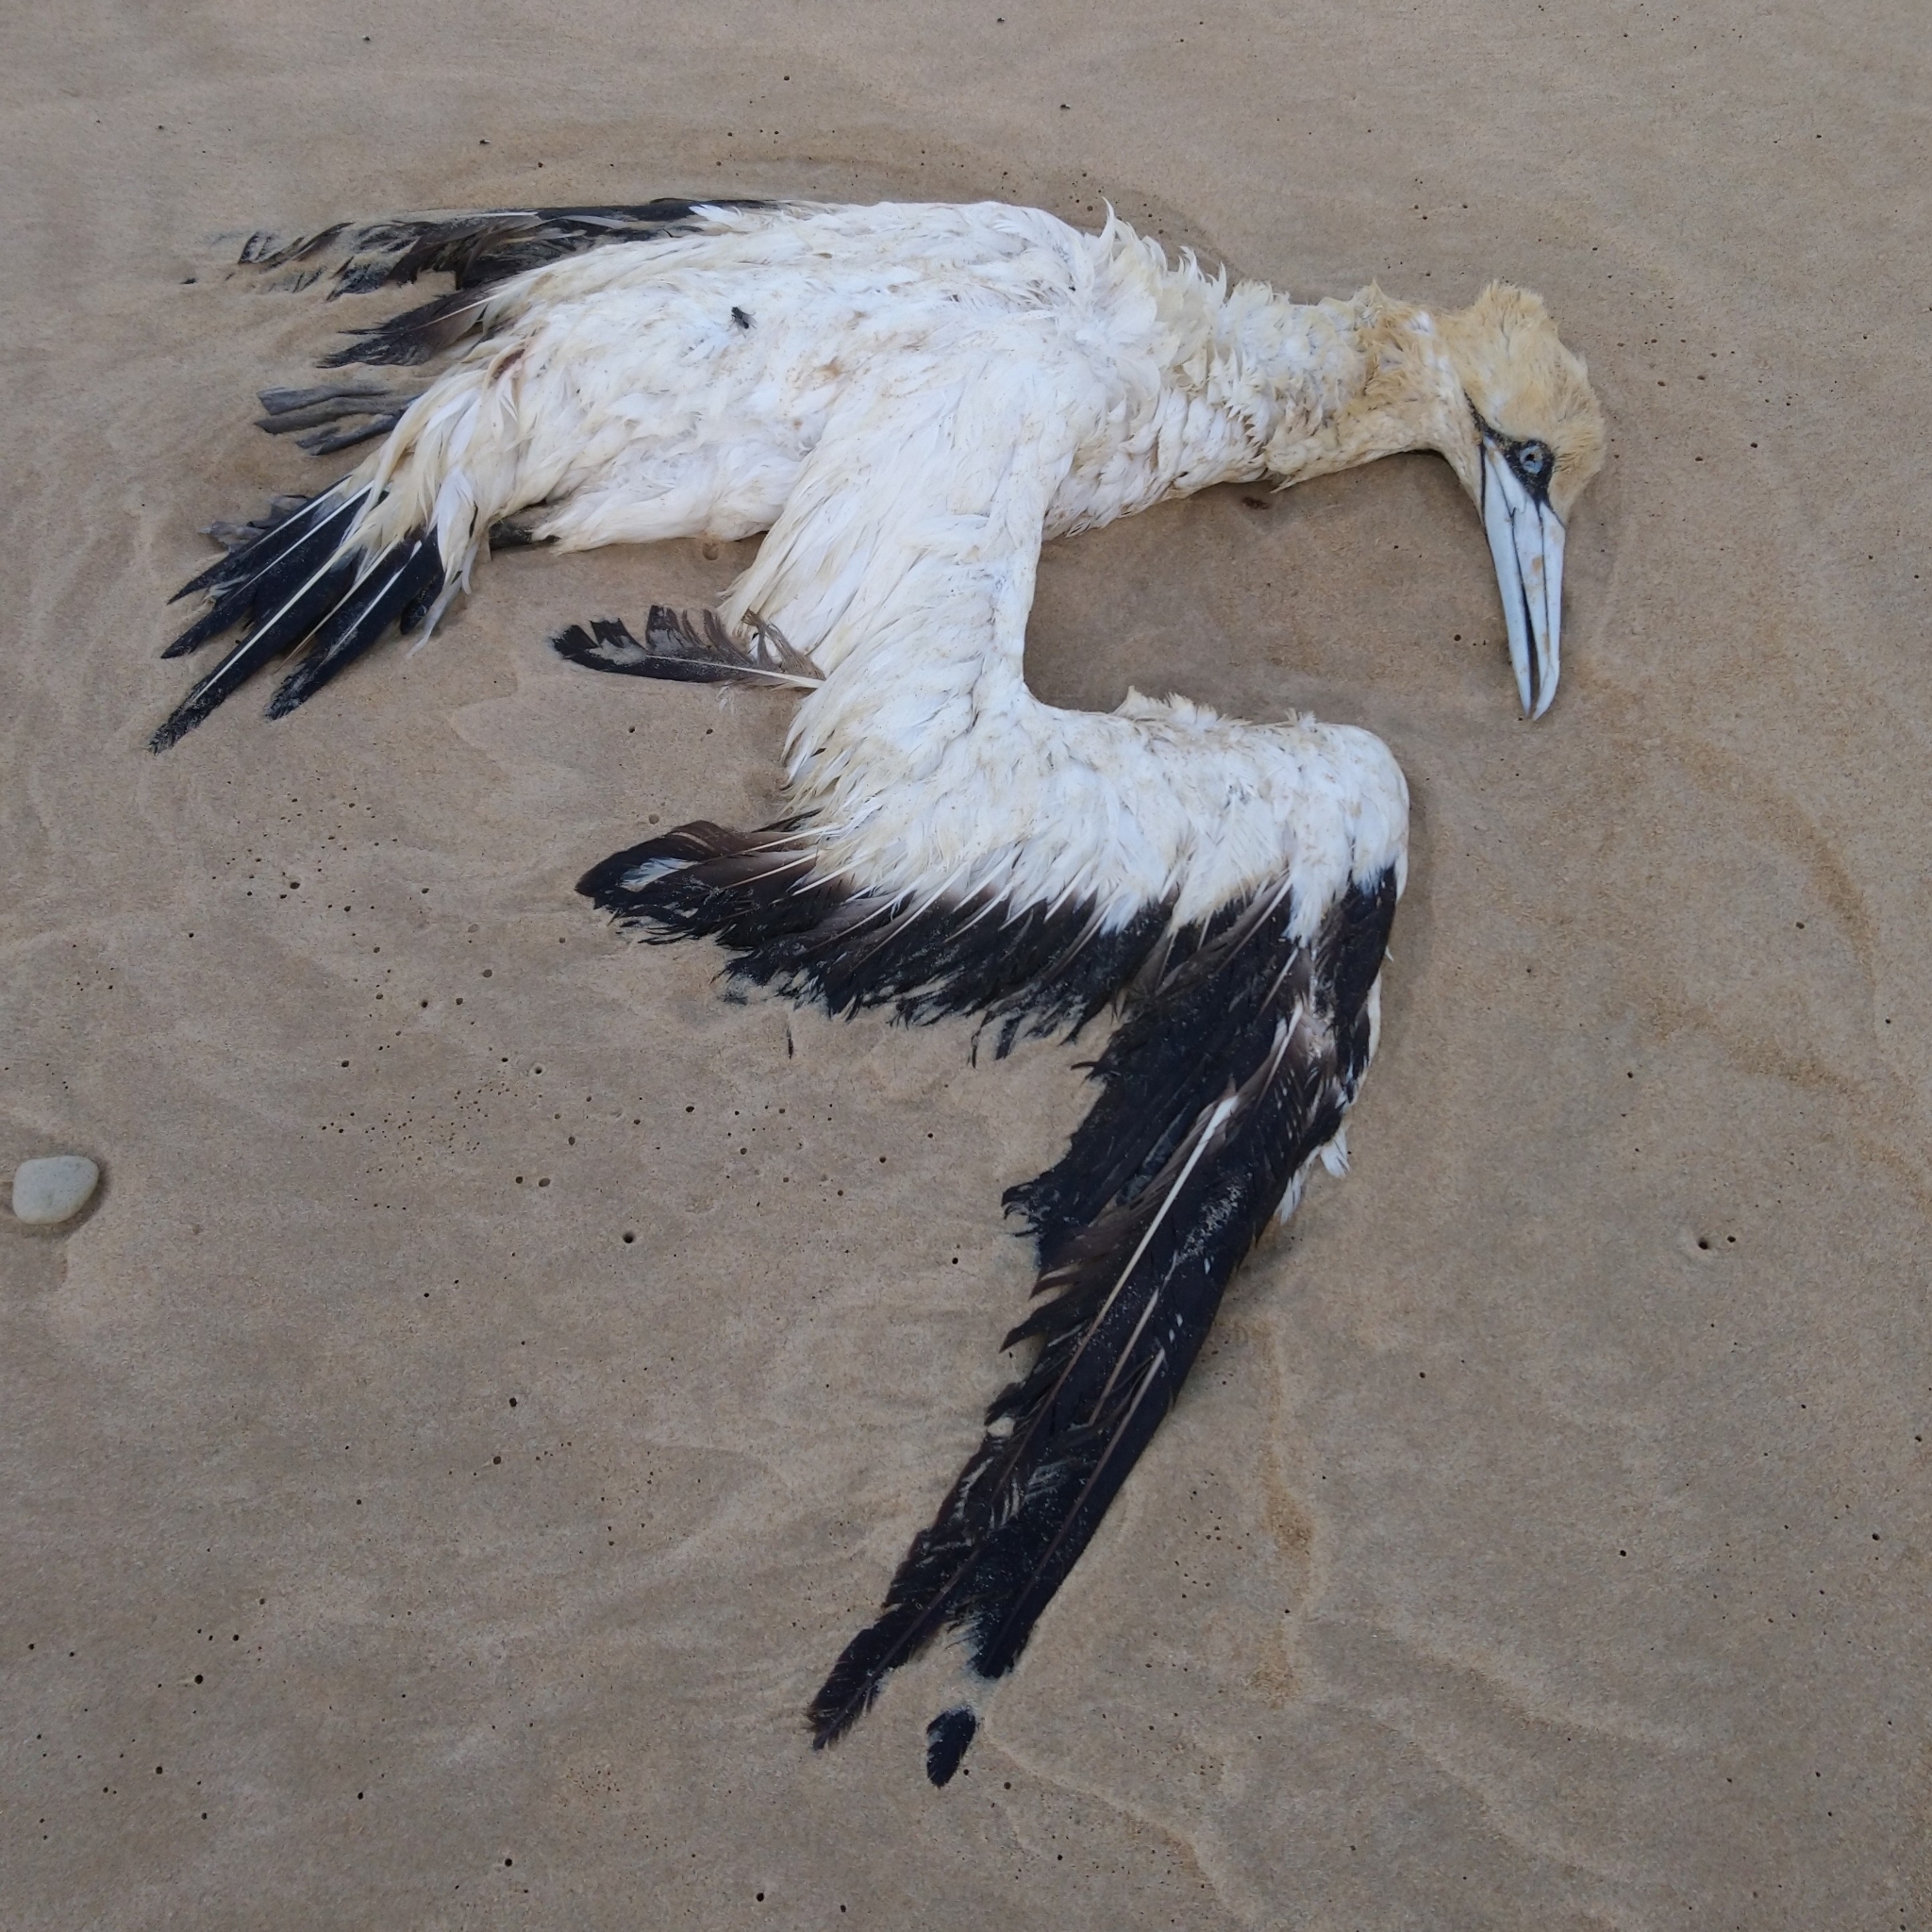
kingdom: Animalia
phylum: Chordata
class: Aves
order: Suliformes
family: Sulidae
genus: Morus
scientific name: Morus capensis
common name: Cape gannet
